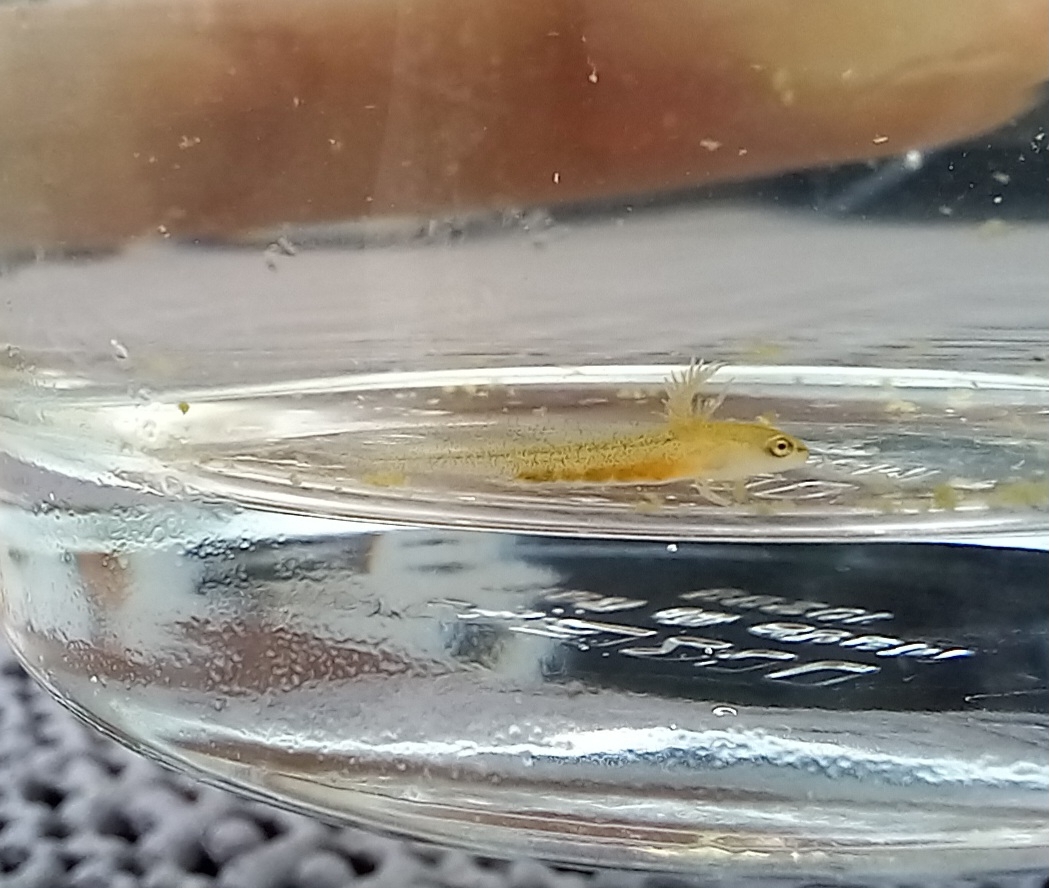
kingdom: Animalia
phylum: Chordata
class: Amphibia
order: Caudata
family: Salamandridae
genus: Lissotriton
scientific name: Lissotriton vulgaris
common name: Smooth newt
